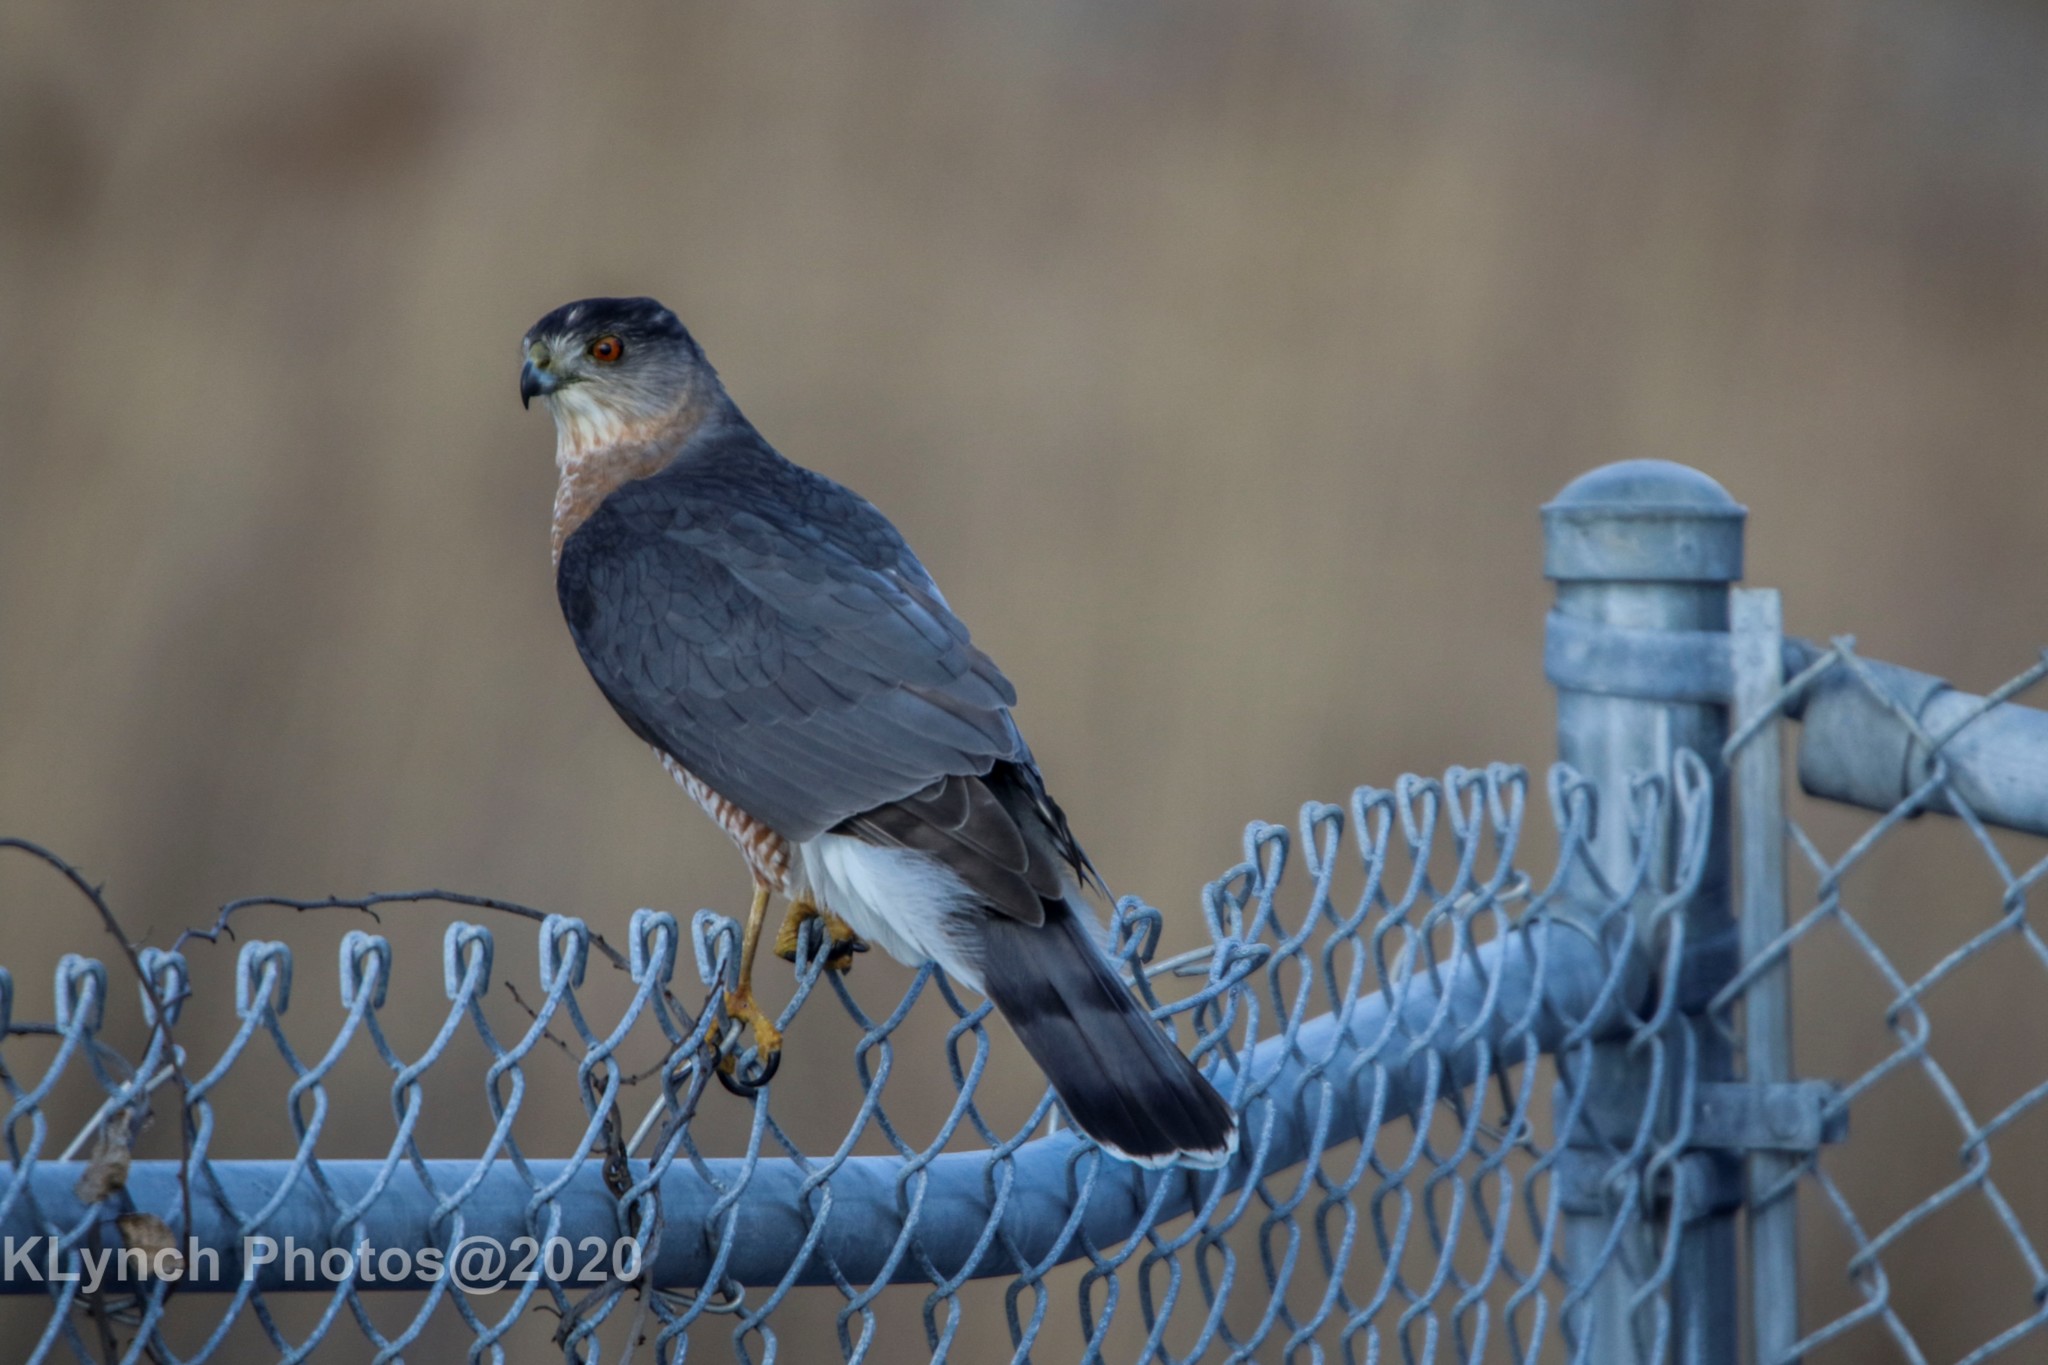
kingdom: Animalia
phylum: Chordata
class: Aves
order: Accipitriformes
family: Accipitridae
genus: Accipiter
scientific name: Accipiter cooperii
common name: Cooper's hawk
